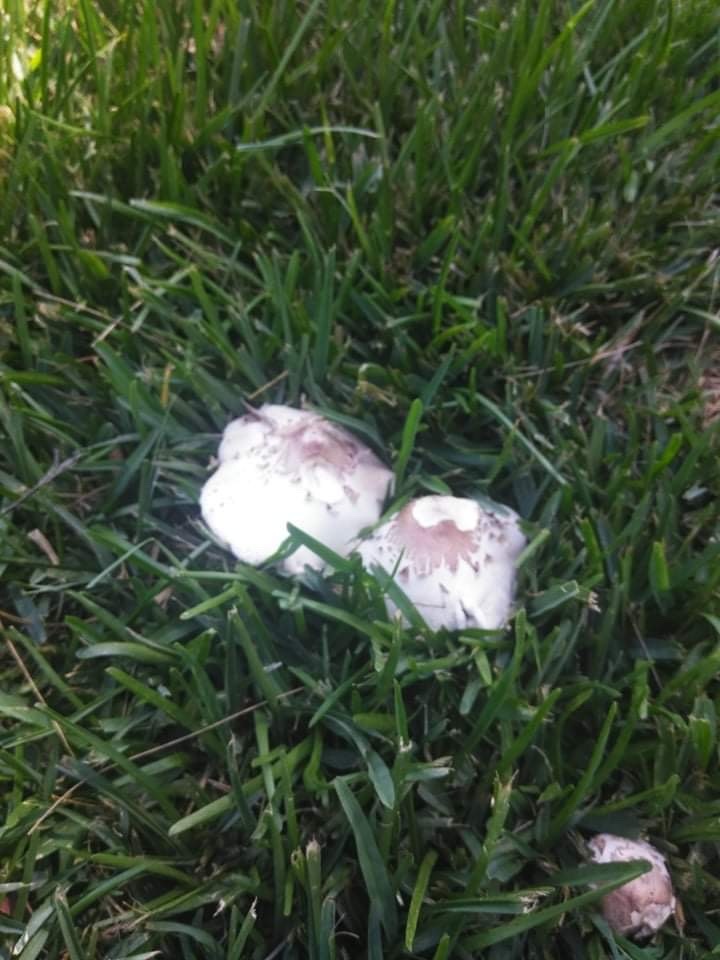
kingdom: Fungi
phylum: Basidiomycota
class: Agaricomycetes
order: Agaricales
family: Agaricaceae
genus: Chlorophyllum
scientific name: Chlorophyllum molybdites
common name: False parasol
